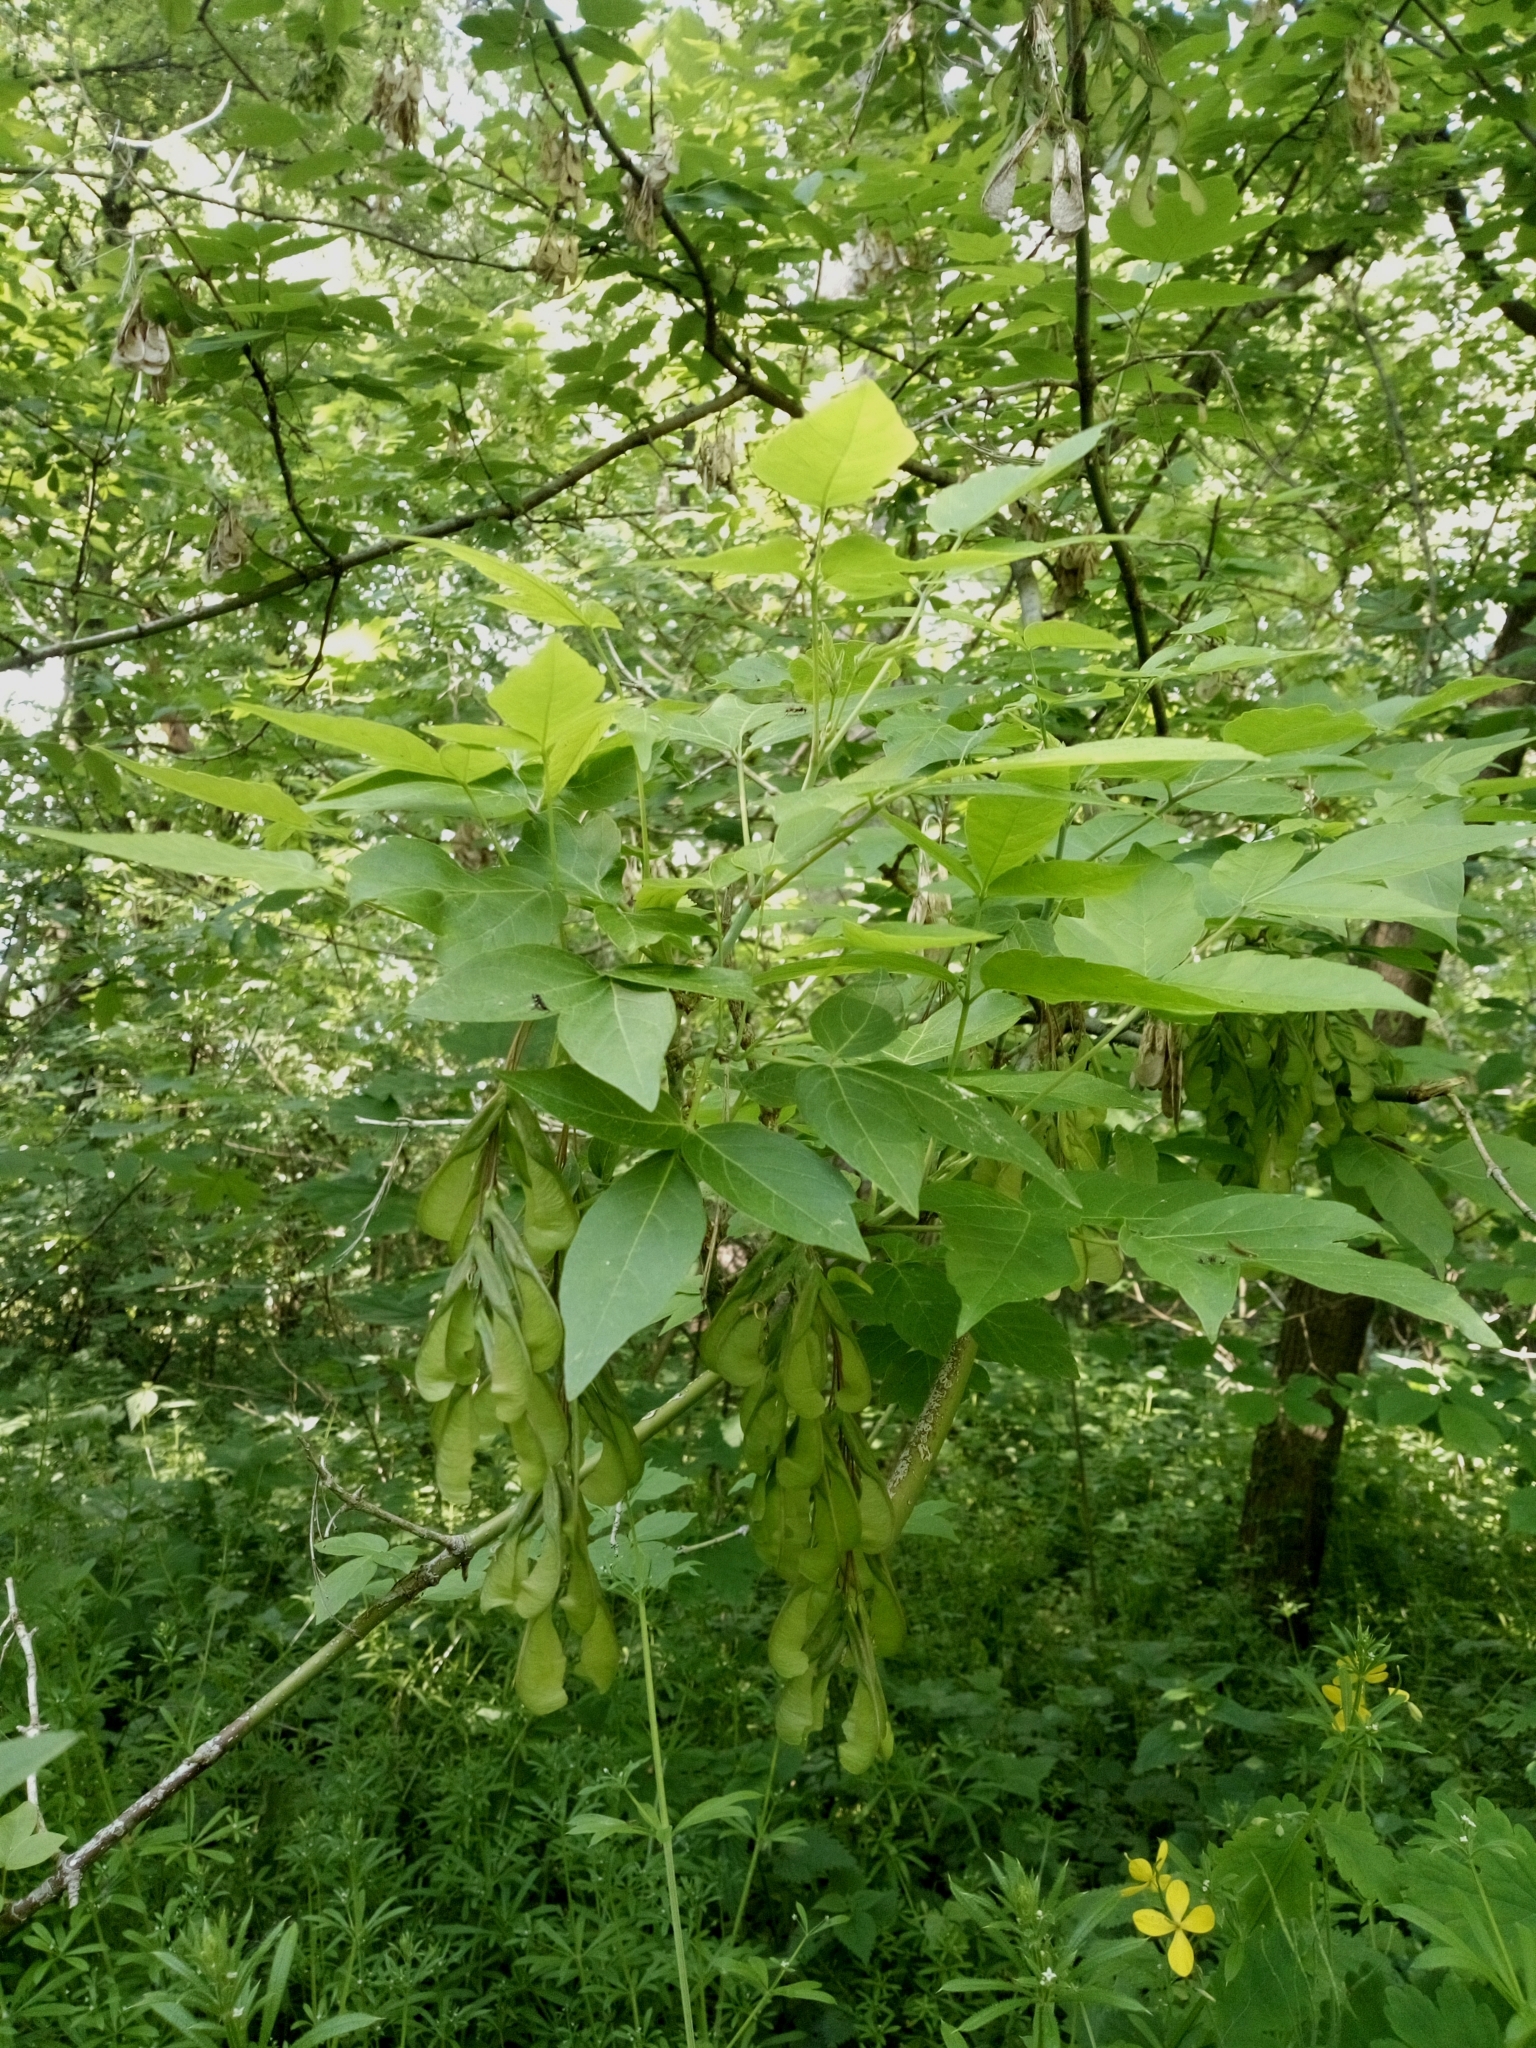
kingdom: Plantae
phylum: Tracheophyta
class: Magnoliopsida
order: Sapindales
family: Sapindaceae
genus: Acer
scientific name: Acer negundo
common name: Ashleaf maple
